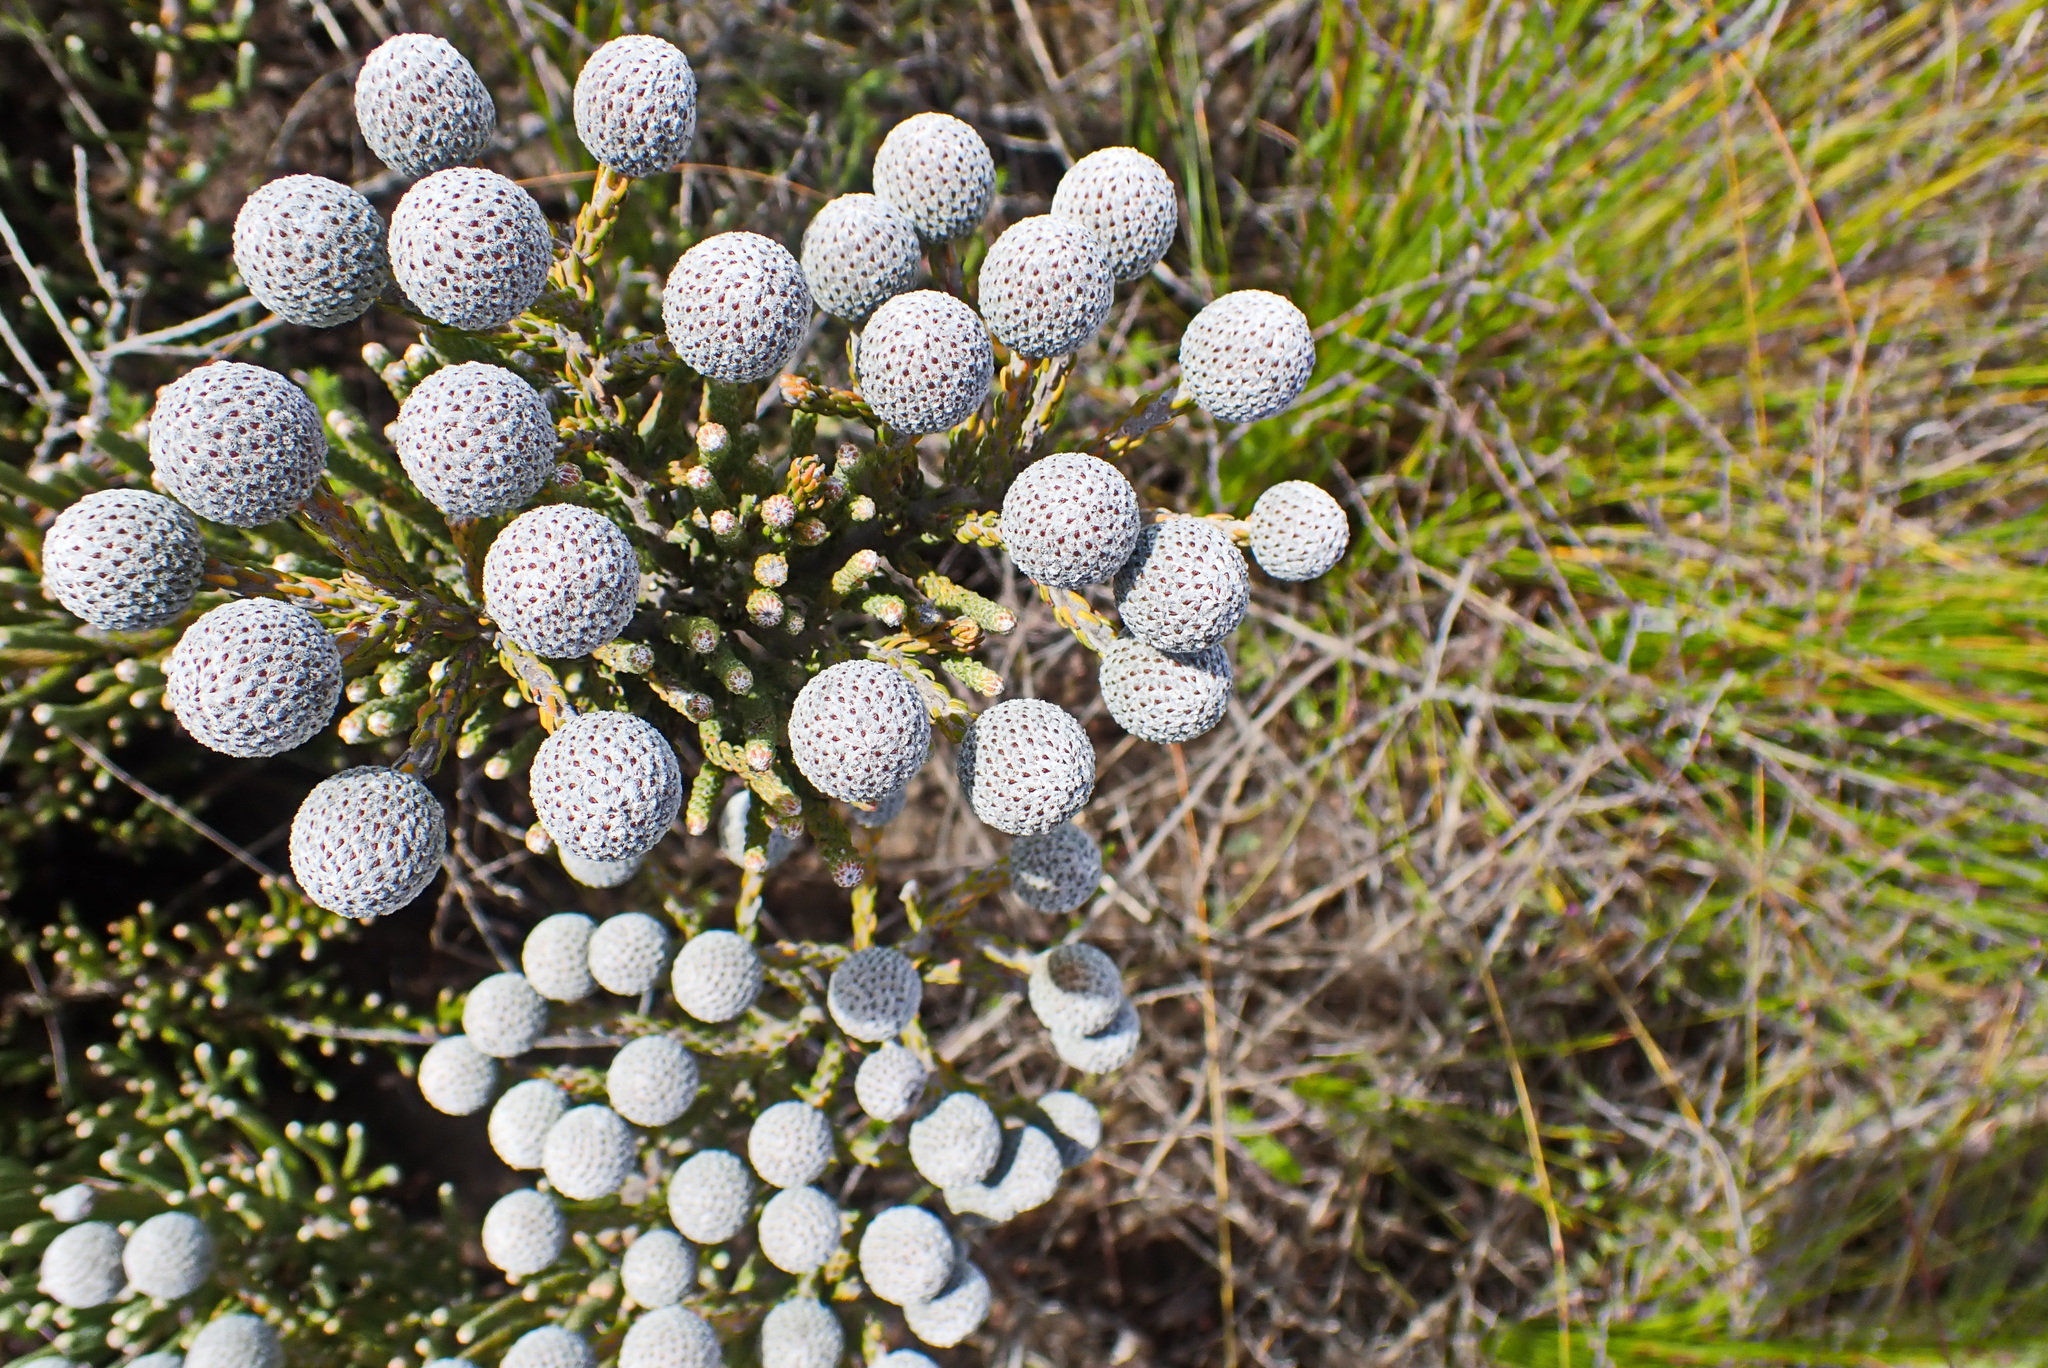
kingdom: Plantae
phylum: Tracheophyta
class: Magnoliopsida
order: Bruniales
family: Bruniaceae
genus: Brunia
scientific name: Brunia noduliflora
